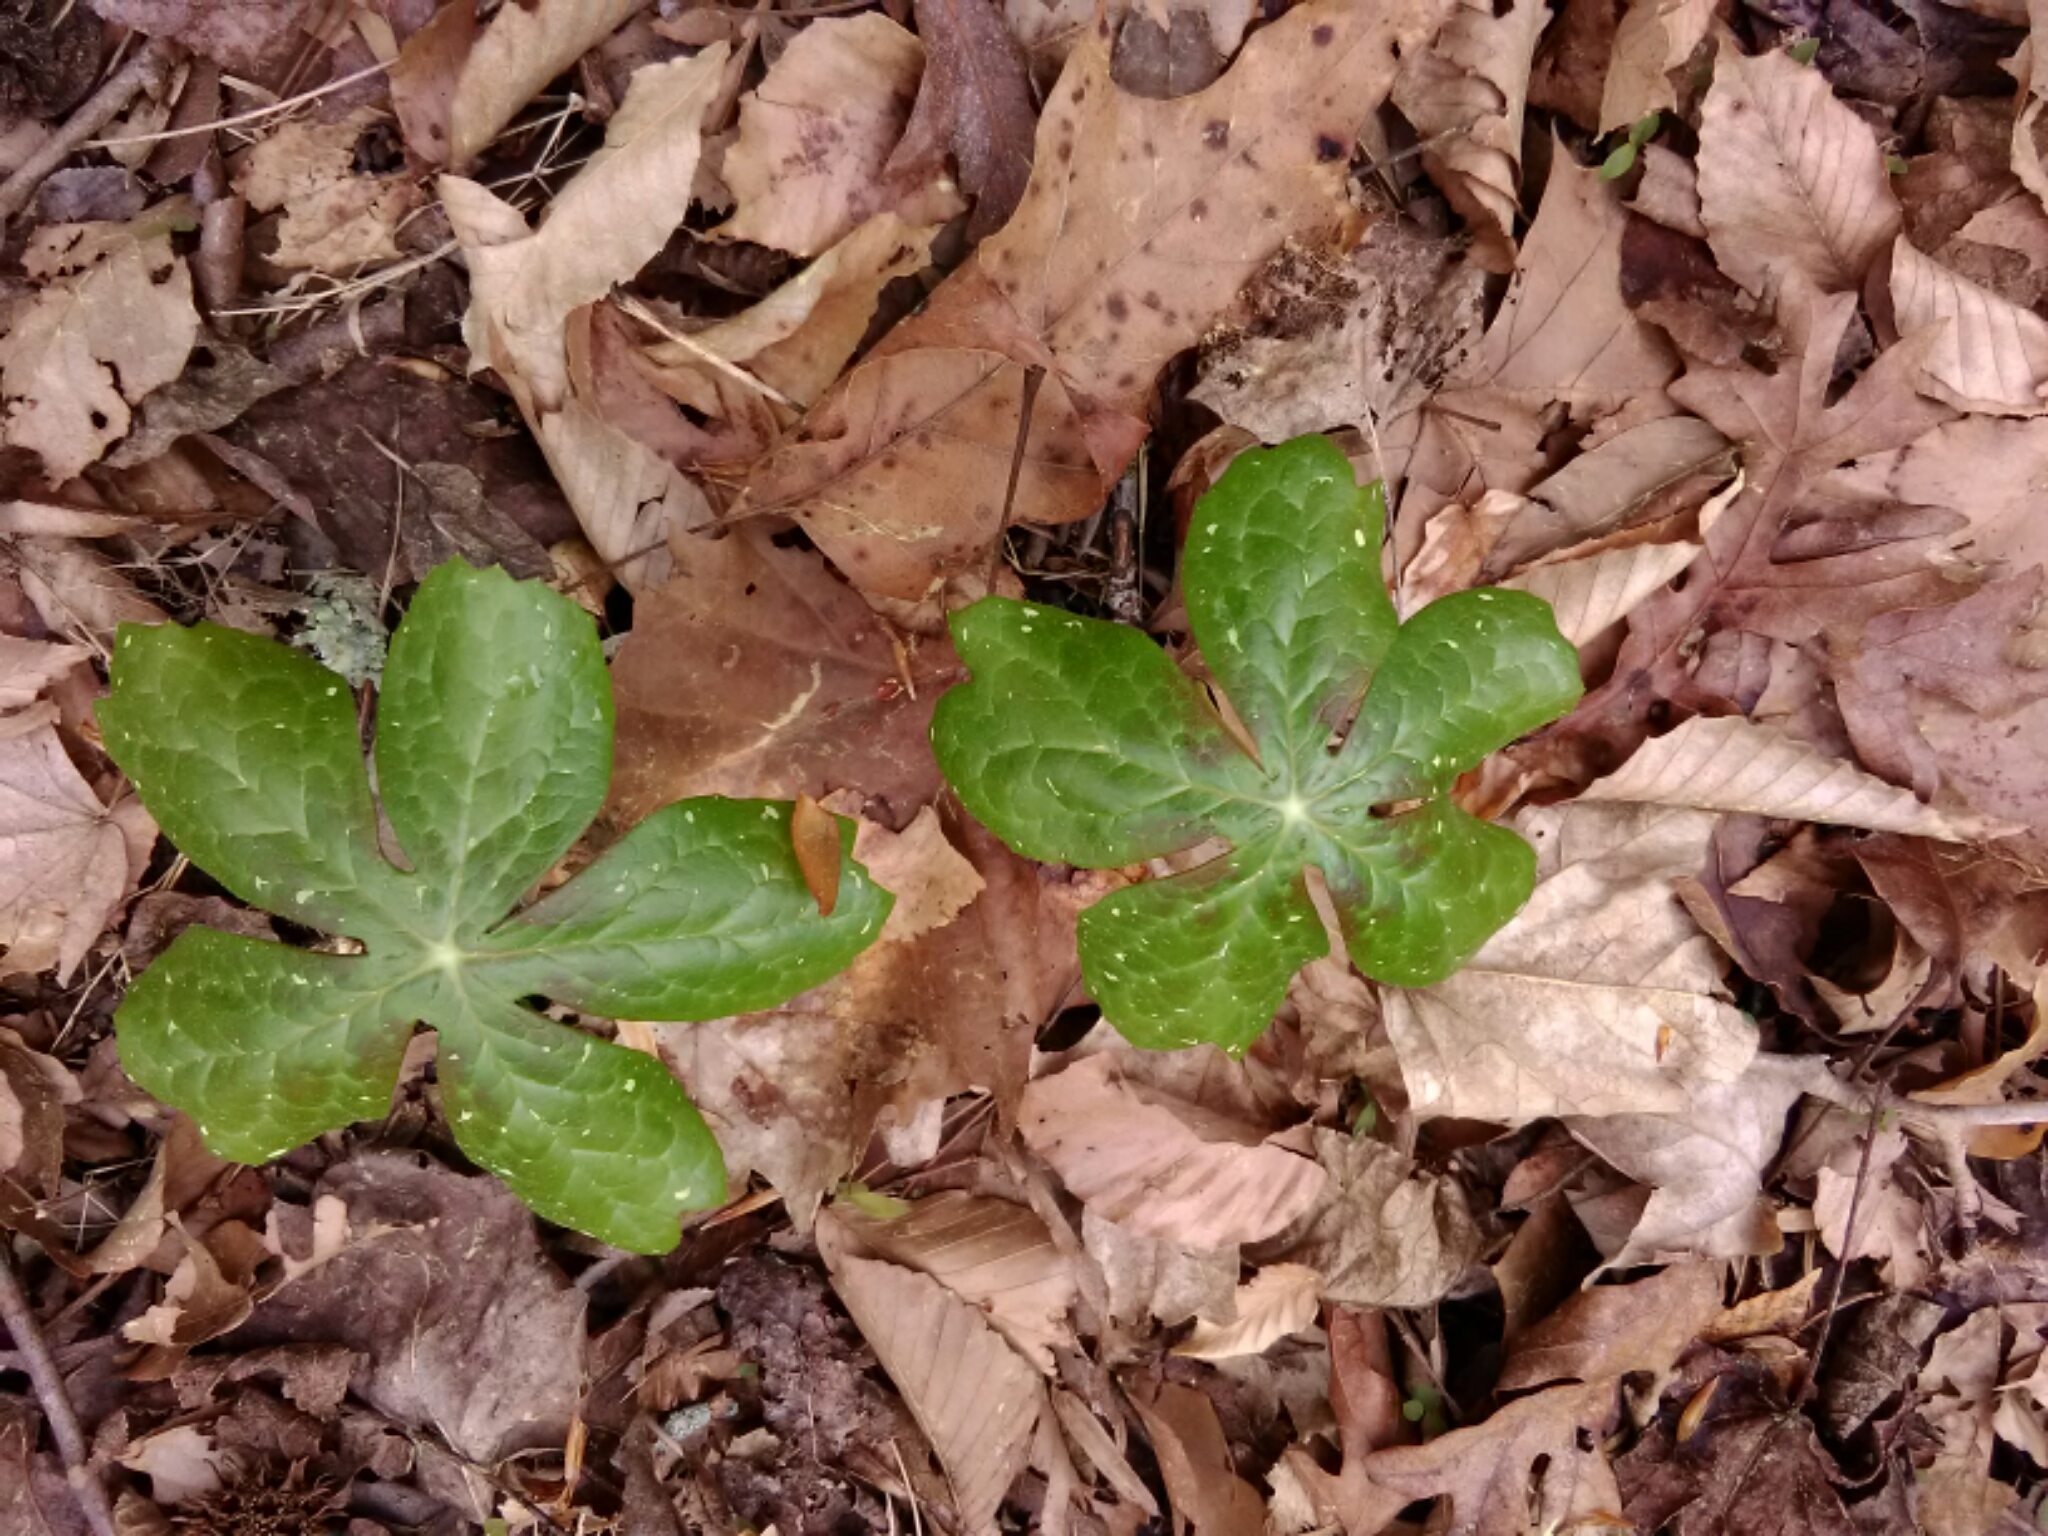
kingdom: Plantae
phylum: Tracheophyta
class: Magnoliopsida
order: Ranunculales
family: Berberidaceae
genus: Podophyllum
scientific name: Podophyllum peltatum
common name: Wild mandrake
